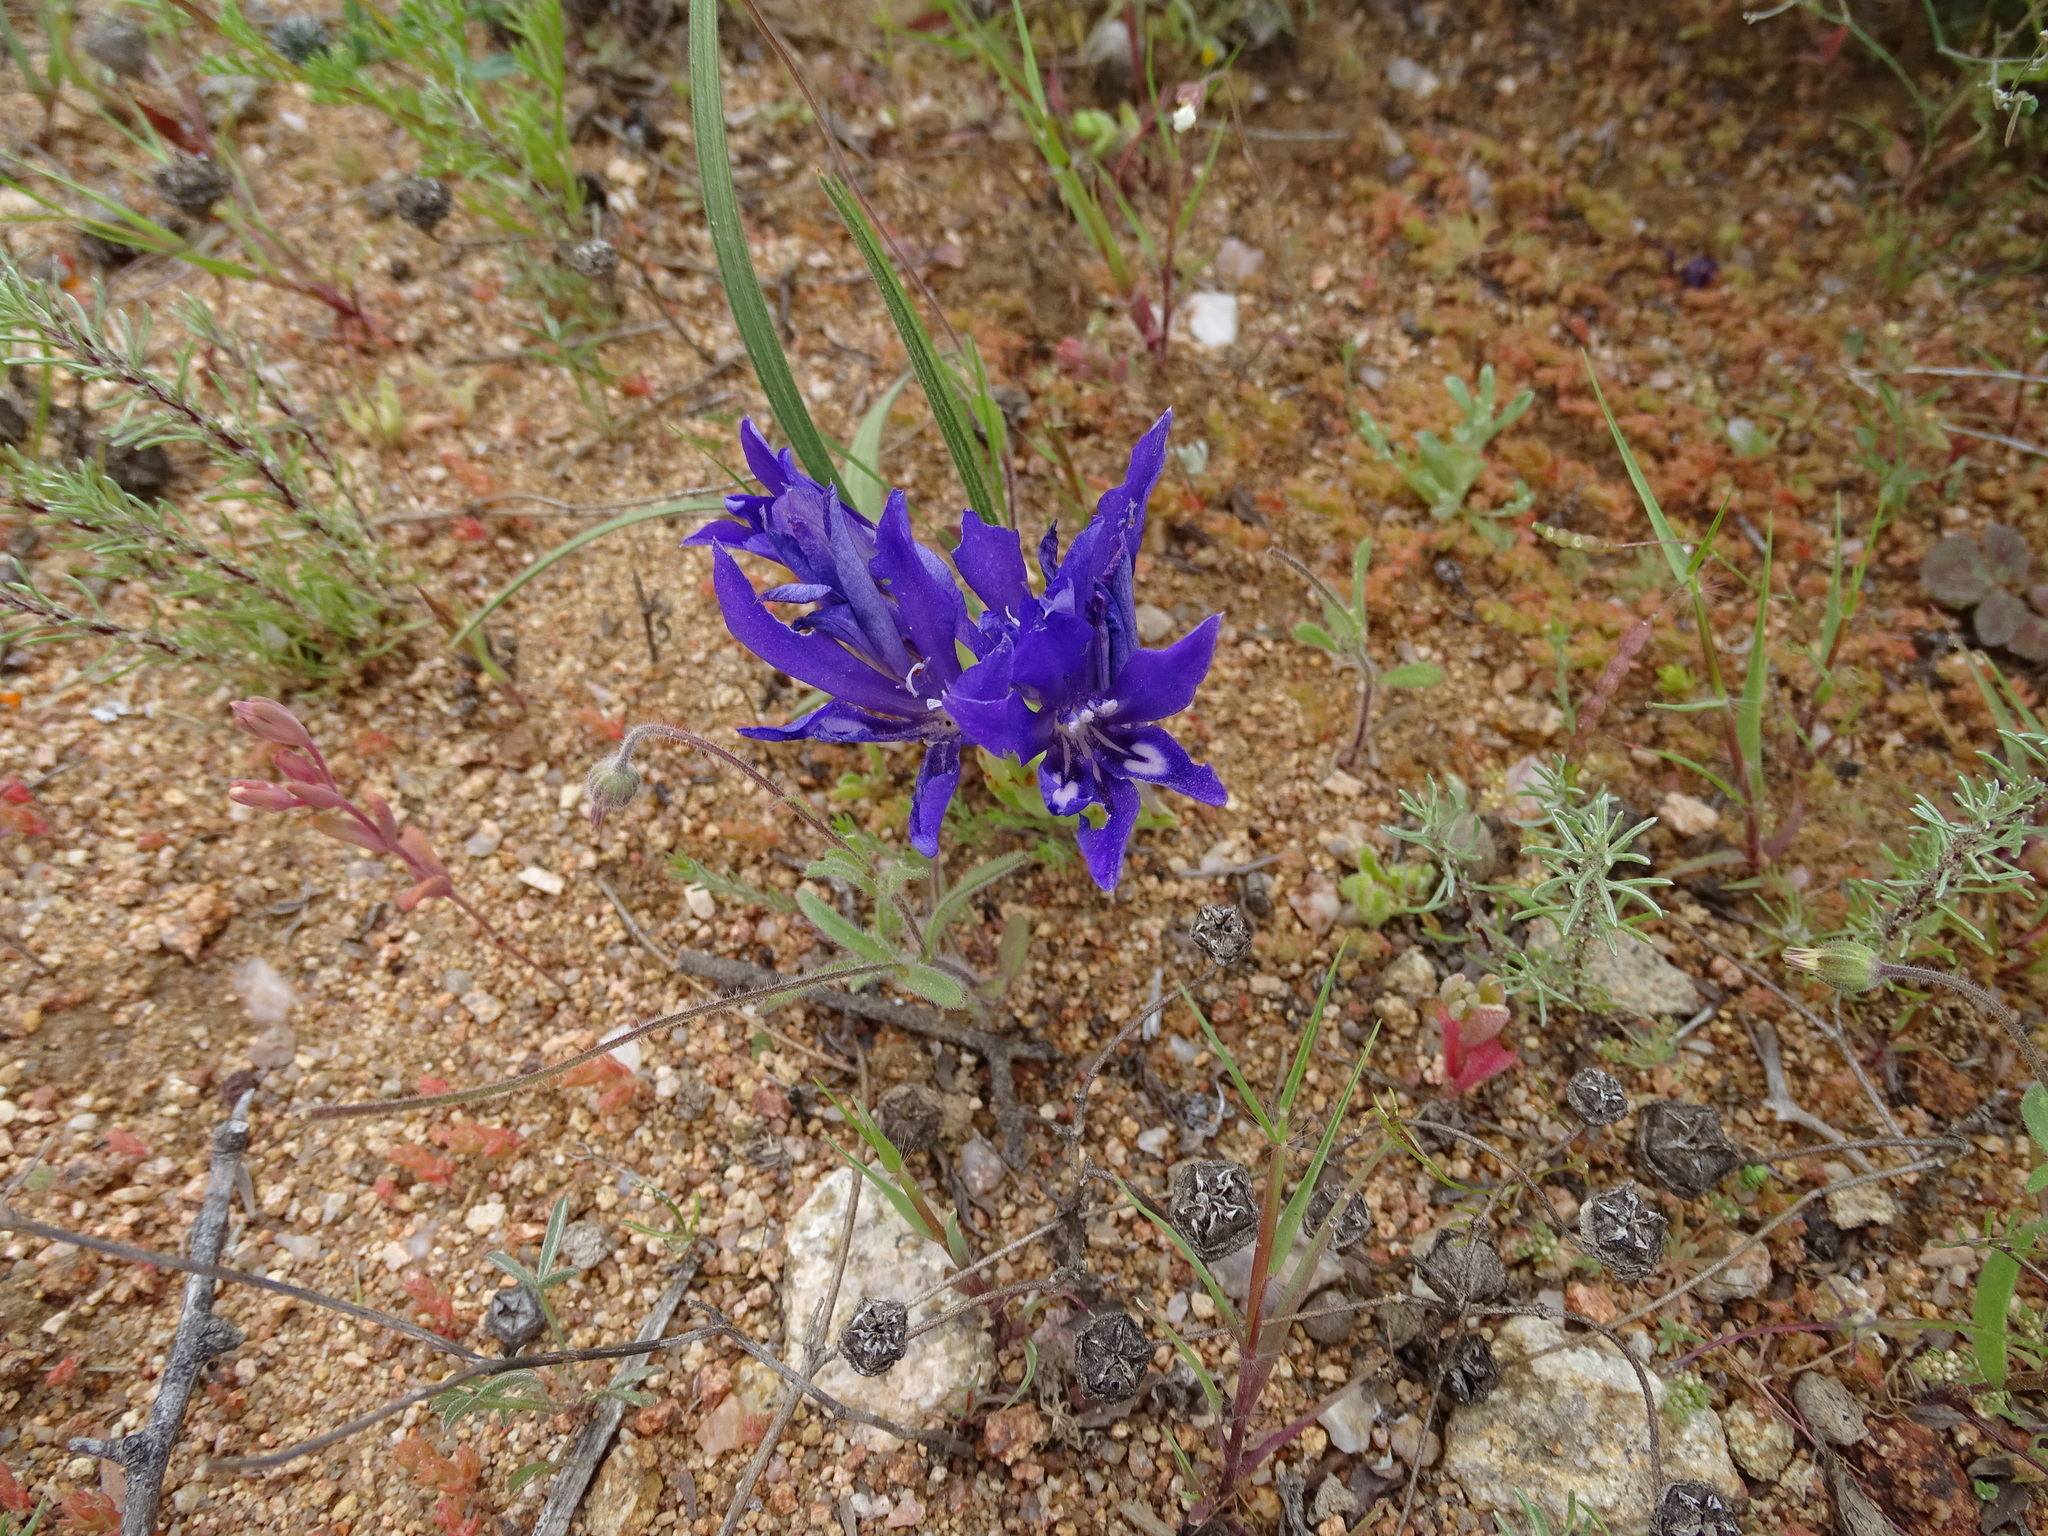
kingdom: Plantae
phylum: Tracheophyta
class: Liliopsida
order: Asparagales
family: Iridaceae
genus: Babiana
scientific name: Babiana attenuata
